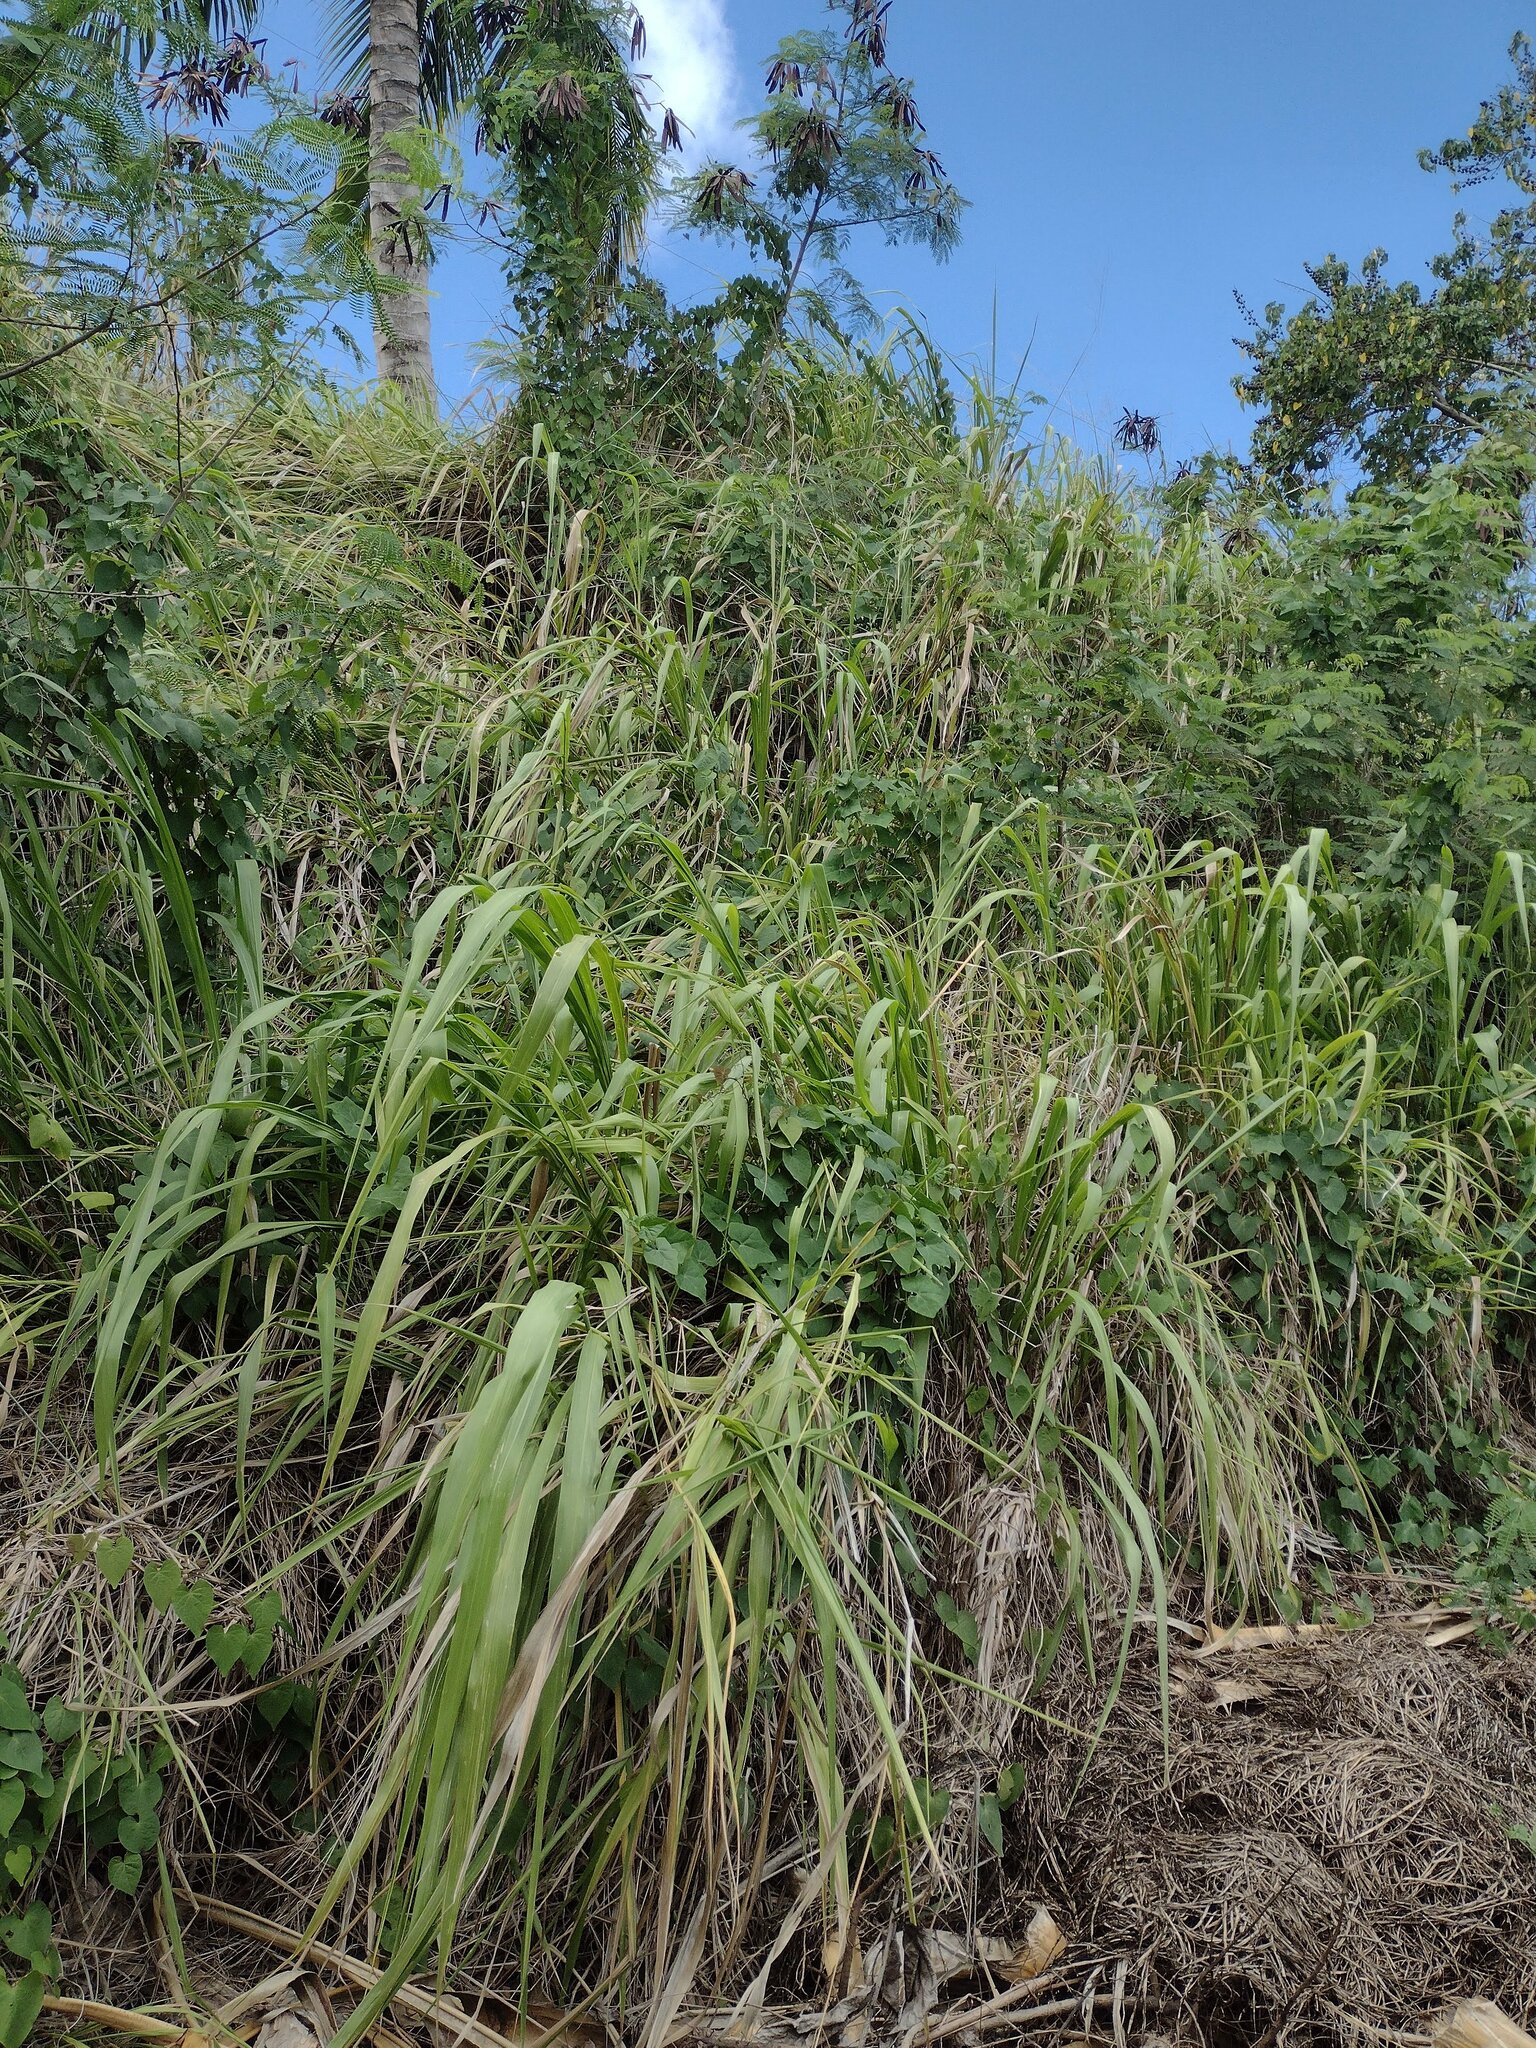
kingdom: Plantae
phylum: Tracheophyta
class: Liliopsida
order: Poales
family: Poaceae
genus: Megathyrsus
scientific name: Megathyrsus maximus
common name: Guineagrass
